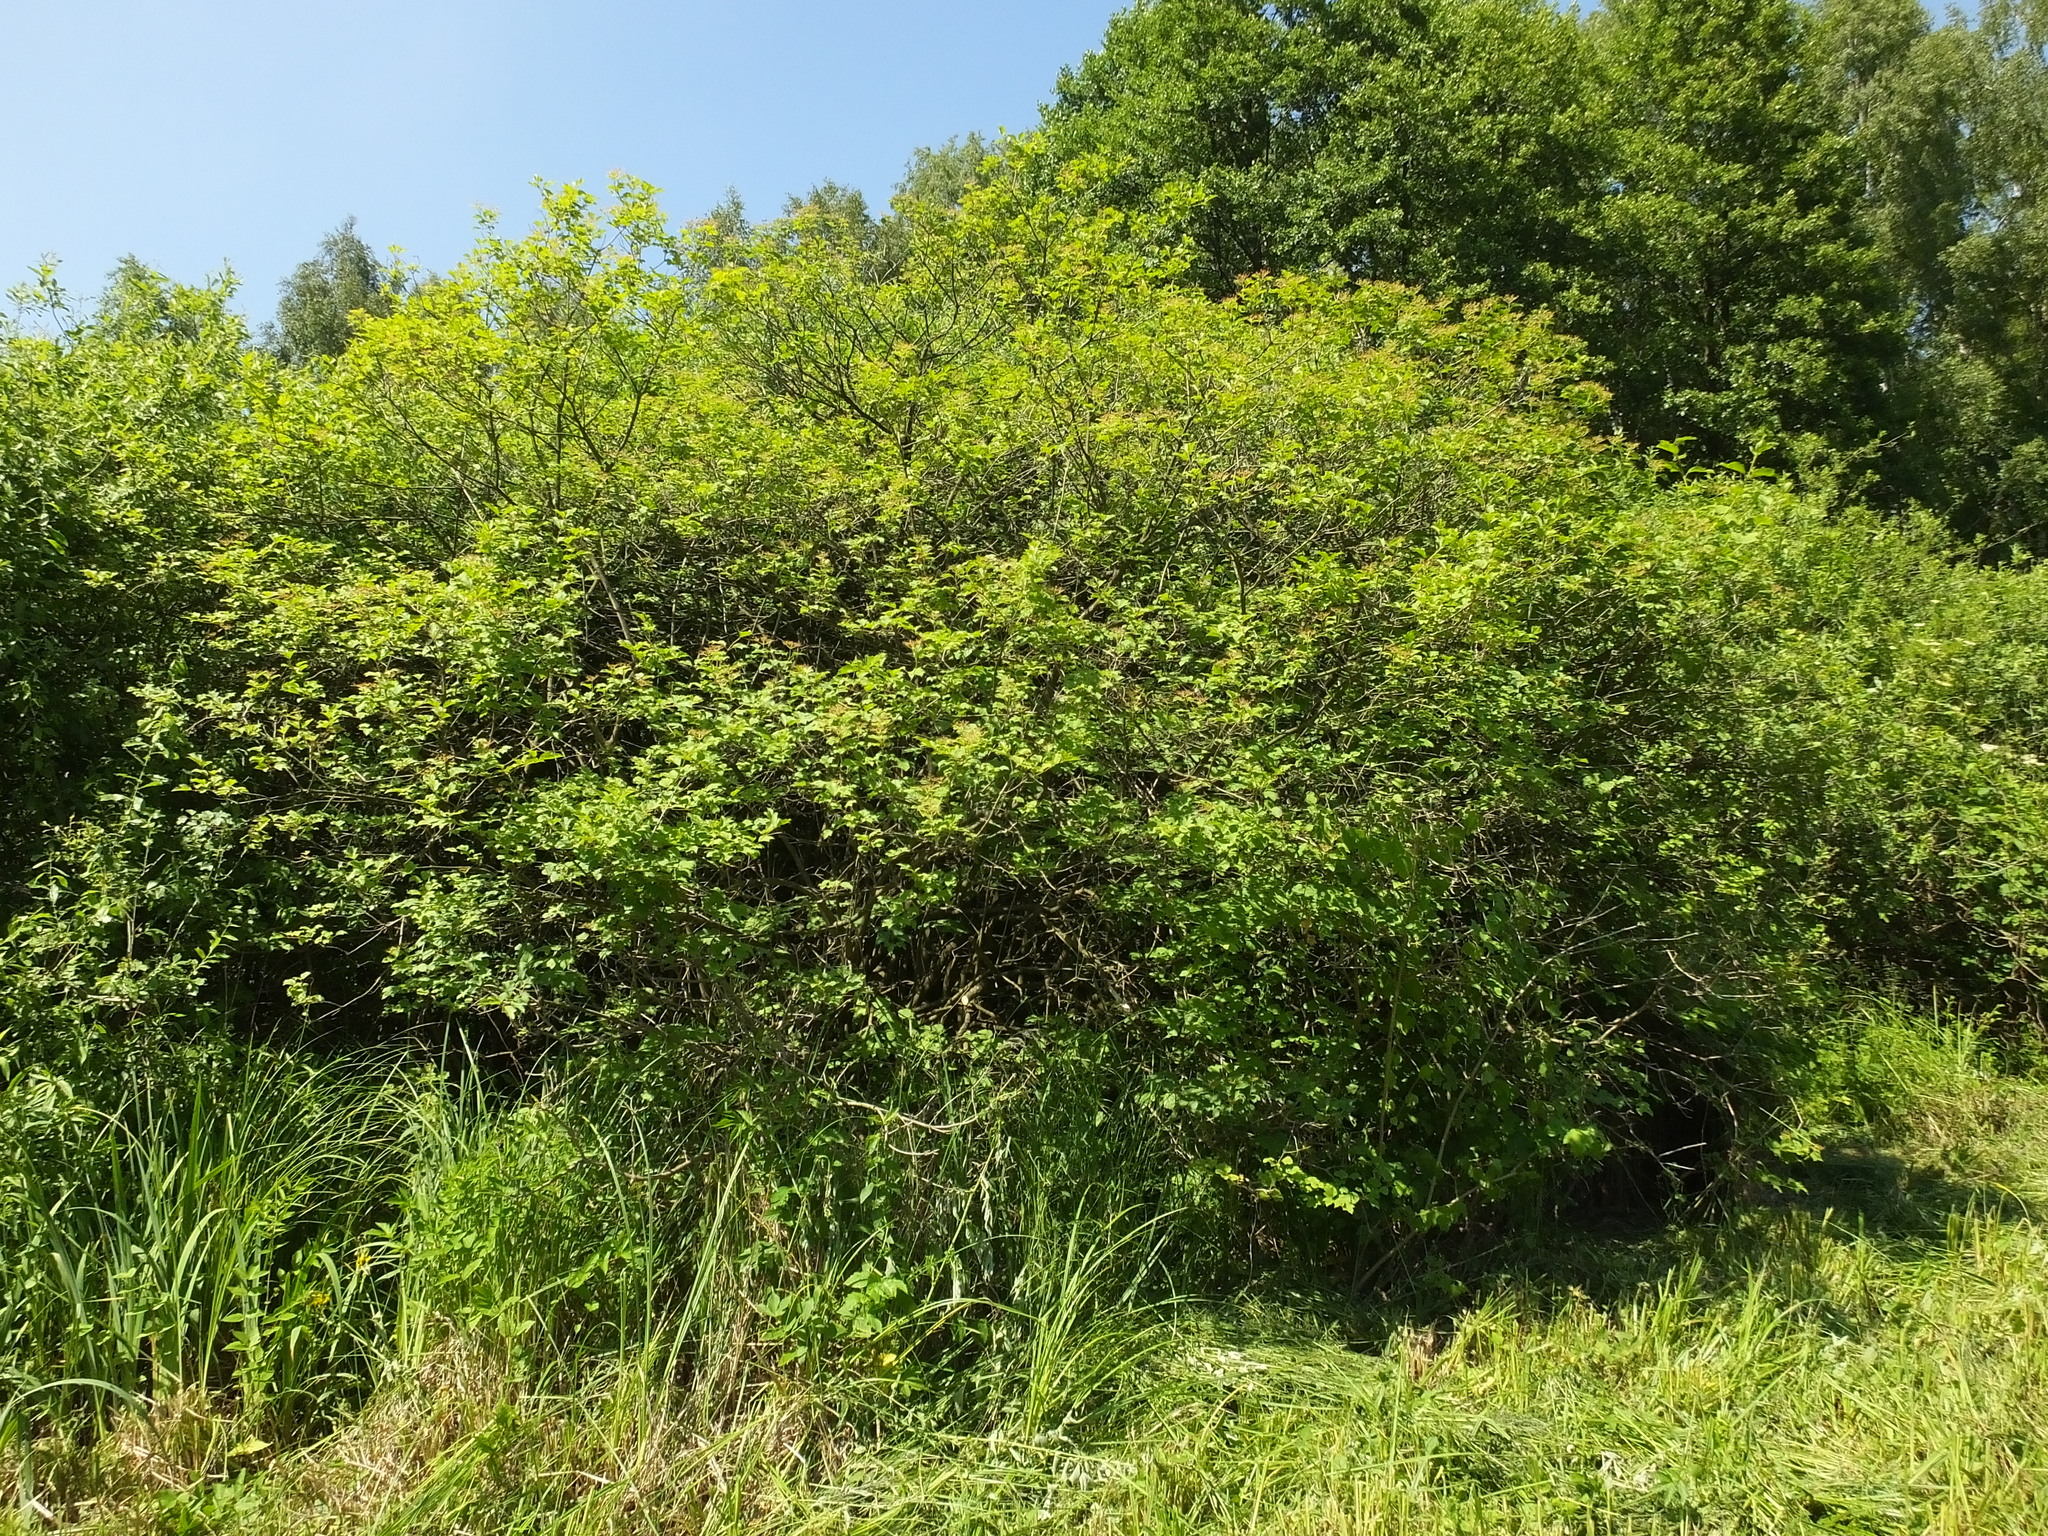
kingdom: Plantae
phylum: Tracheophyta
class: Magnoliopsida
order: Dipsacales
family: Viburnaceae
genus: Viburnum
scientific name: Viburnum opulus
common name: Guelder-rose
